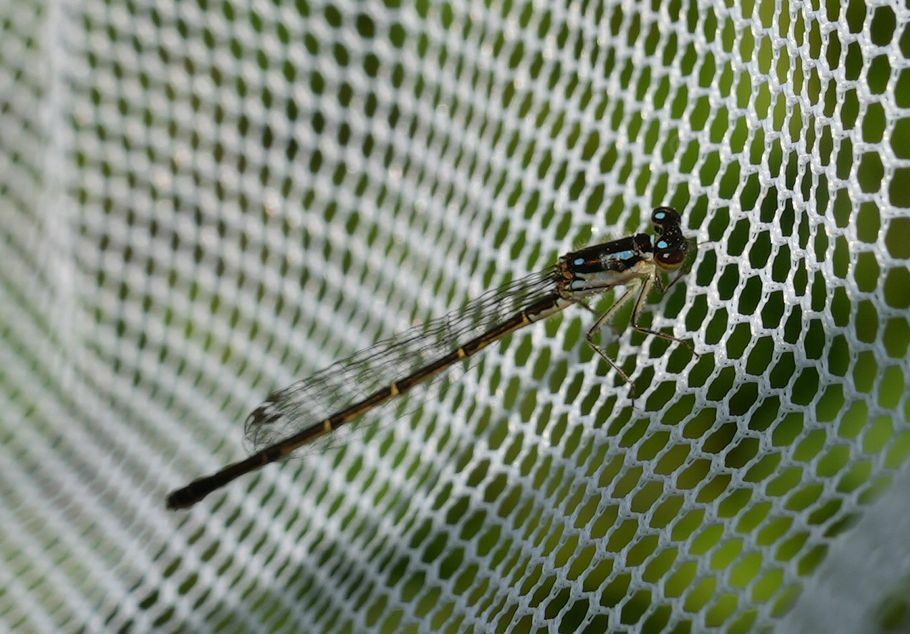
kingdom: Animalia
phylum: Arthropoda
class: Insecta
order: Odonata
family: Coenagrionidae
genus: Ischnura
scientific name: Ischnura posita
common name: Fragile forktail
